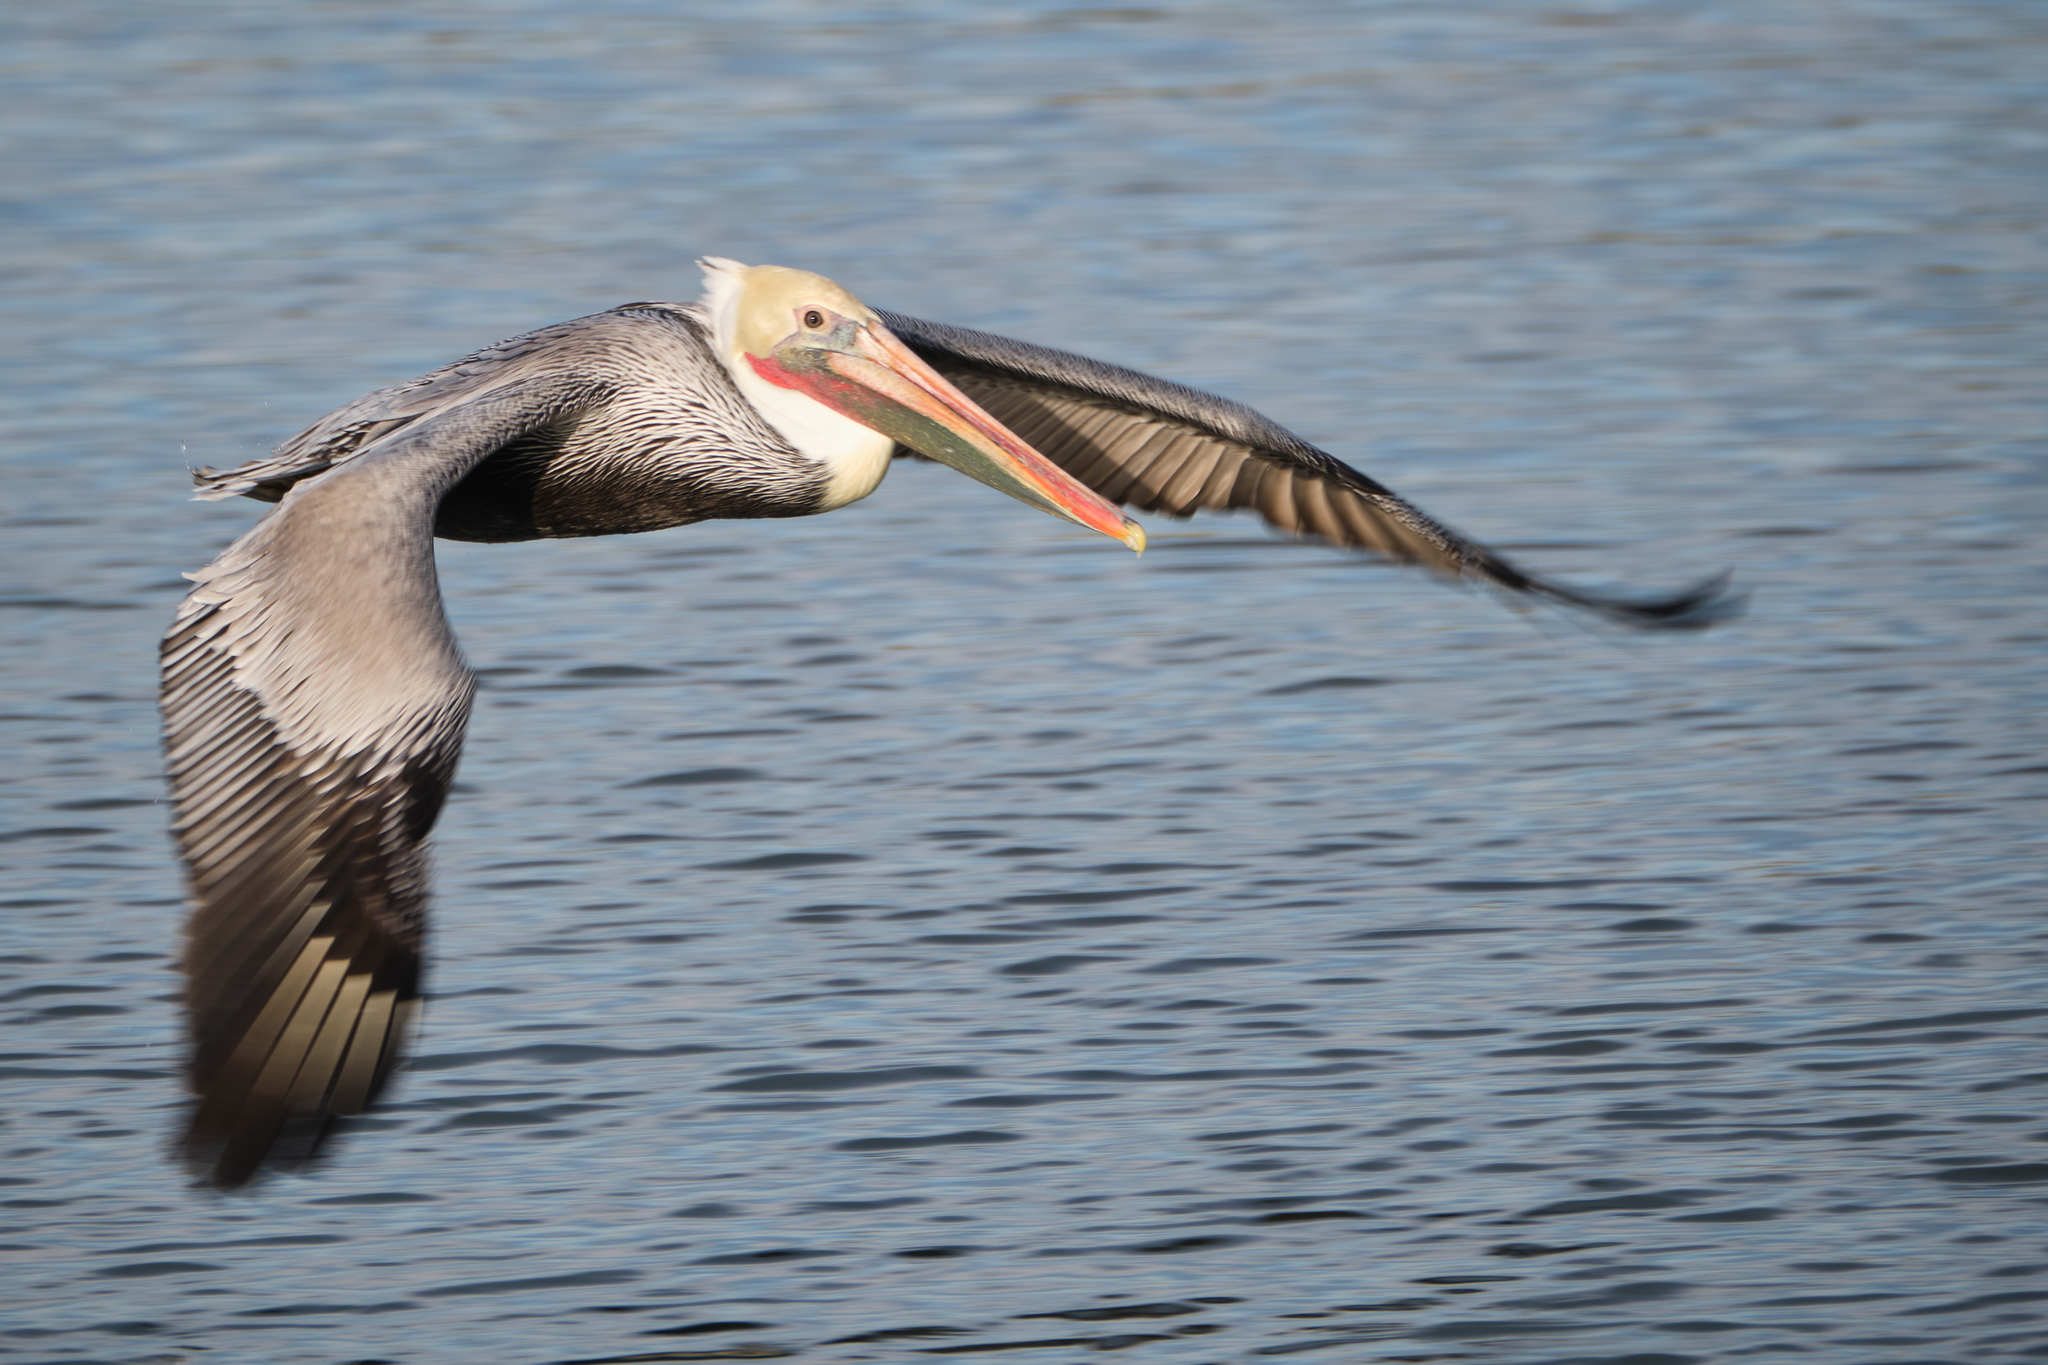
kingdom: Animalia
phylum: Chordata
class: Aves
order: Pelecaniformes
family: Pelecanidae
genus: Pelecanus
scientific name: Pelecanus occidentalis
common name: Brown pelican
